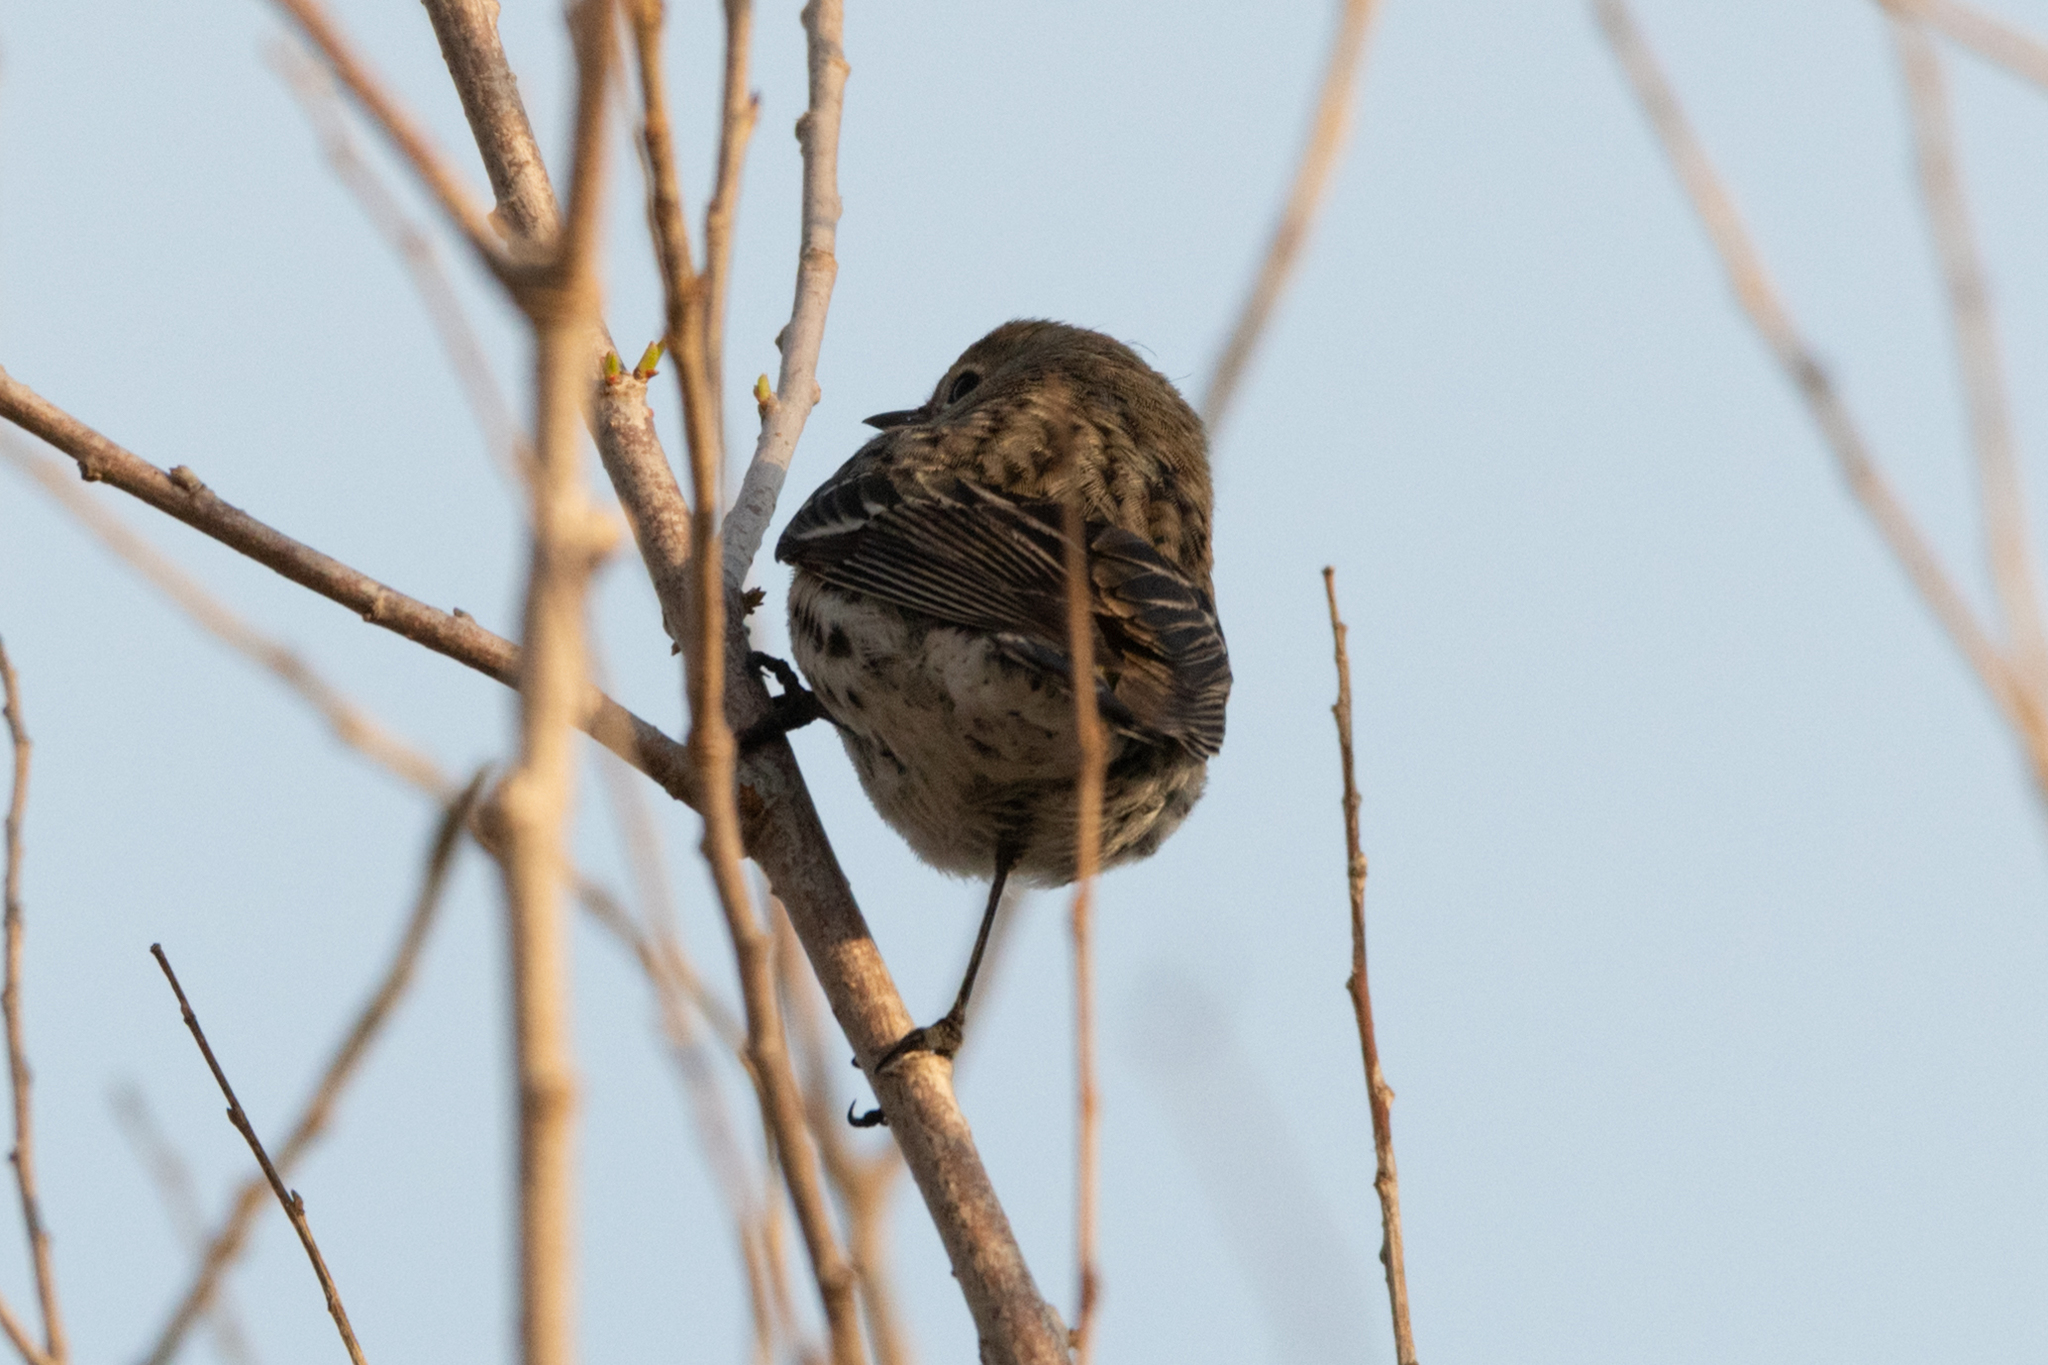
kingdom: Animalia
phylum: Chordata
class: Aves
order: Passeriformes
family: Parulidae
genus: Setophaga
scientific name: Setophaga coronata
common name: Myrtle warbler
